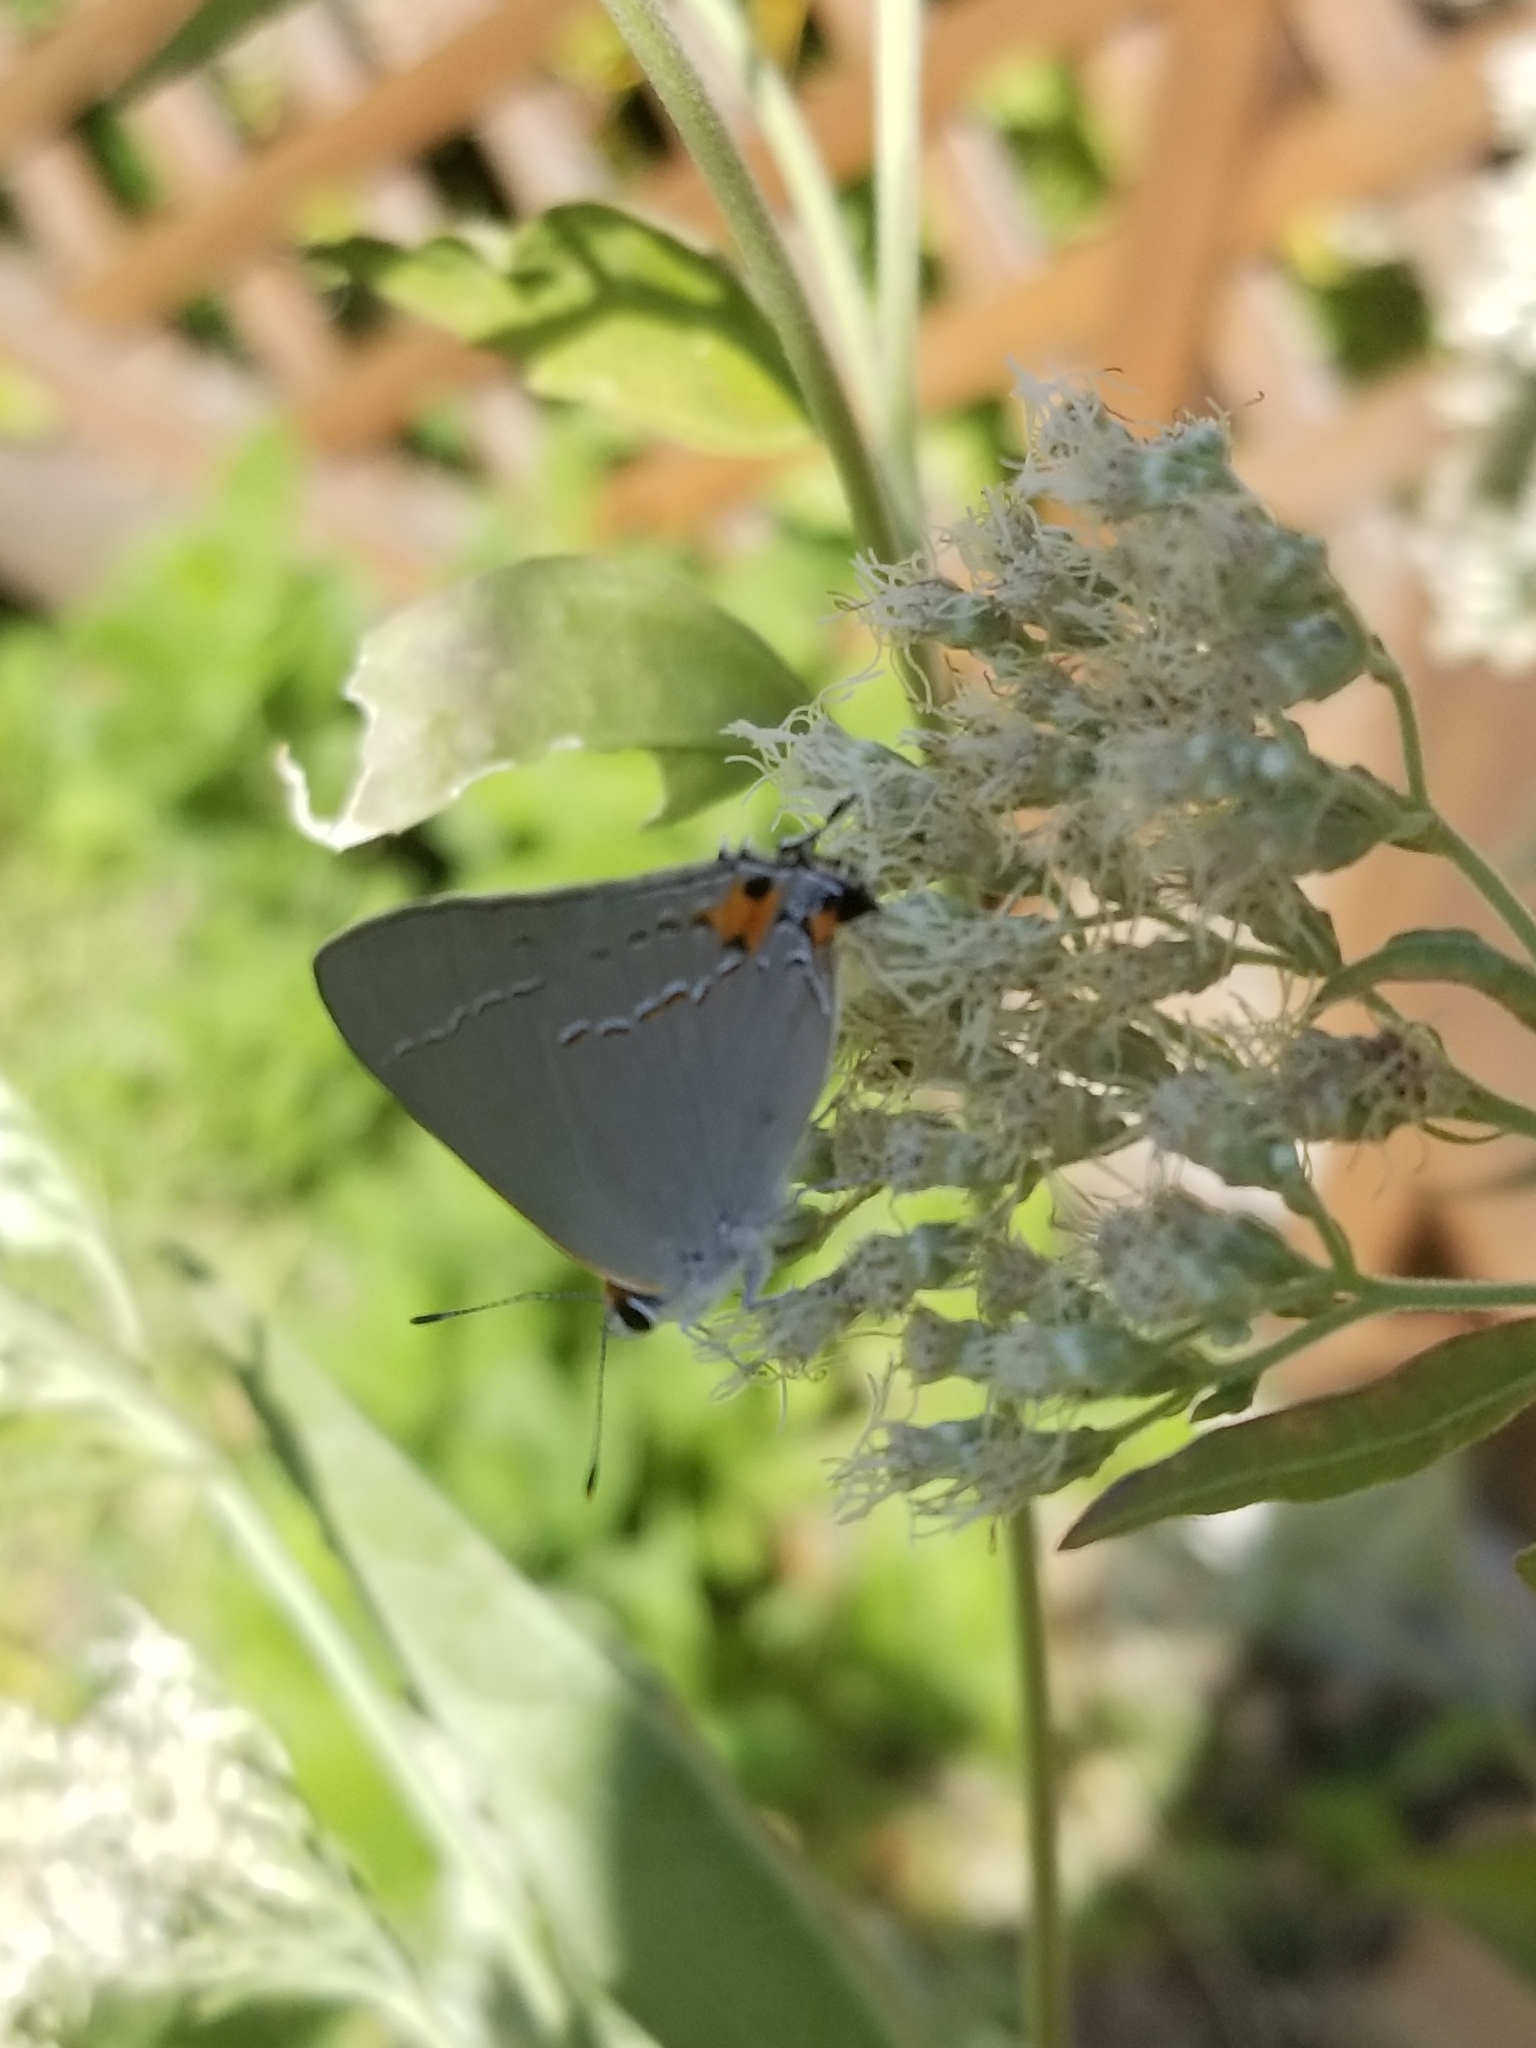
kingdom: Animalia
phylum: Arthropoda
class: Insecta
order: Lepidoptera
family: Lycaenidae
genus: Strymon
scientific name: Strymon melinus
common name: Gray hairstreak
